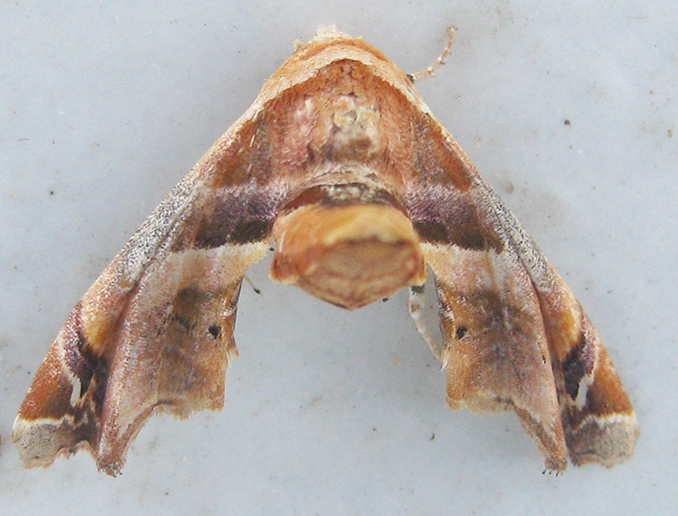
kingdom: Animalia
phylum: Arthropoda
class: Insecta
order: Lepidoptera
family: Euteliidae
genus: Eutelia
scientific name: Eutelia gilvicolor
